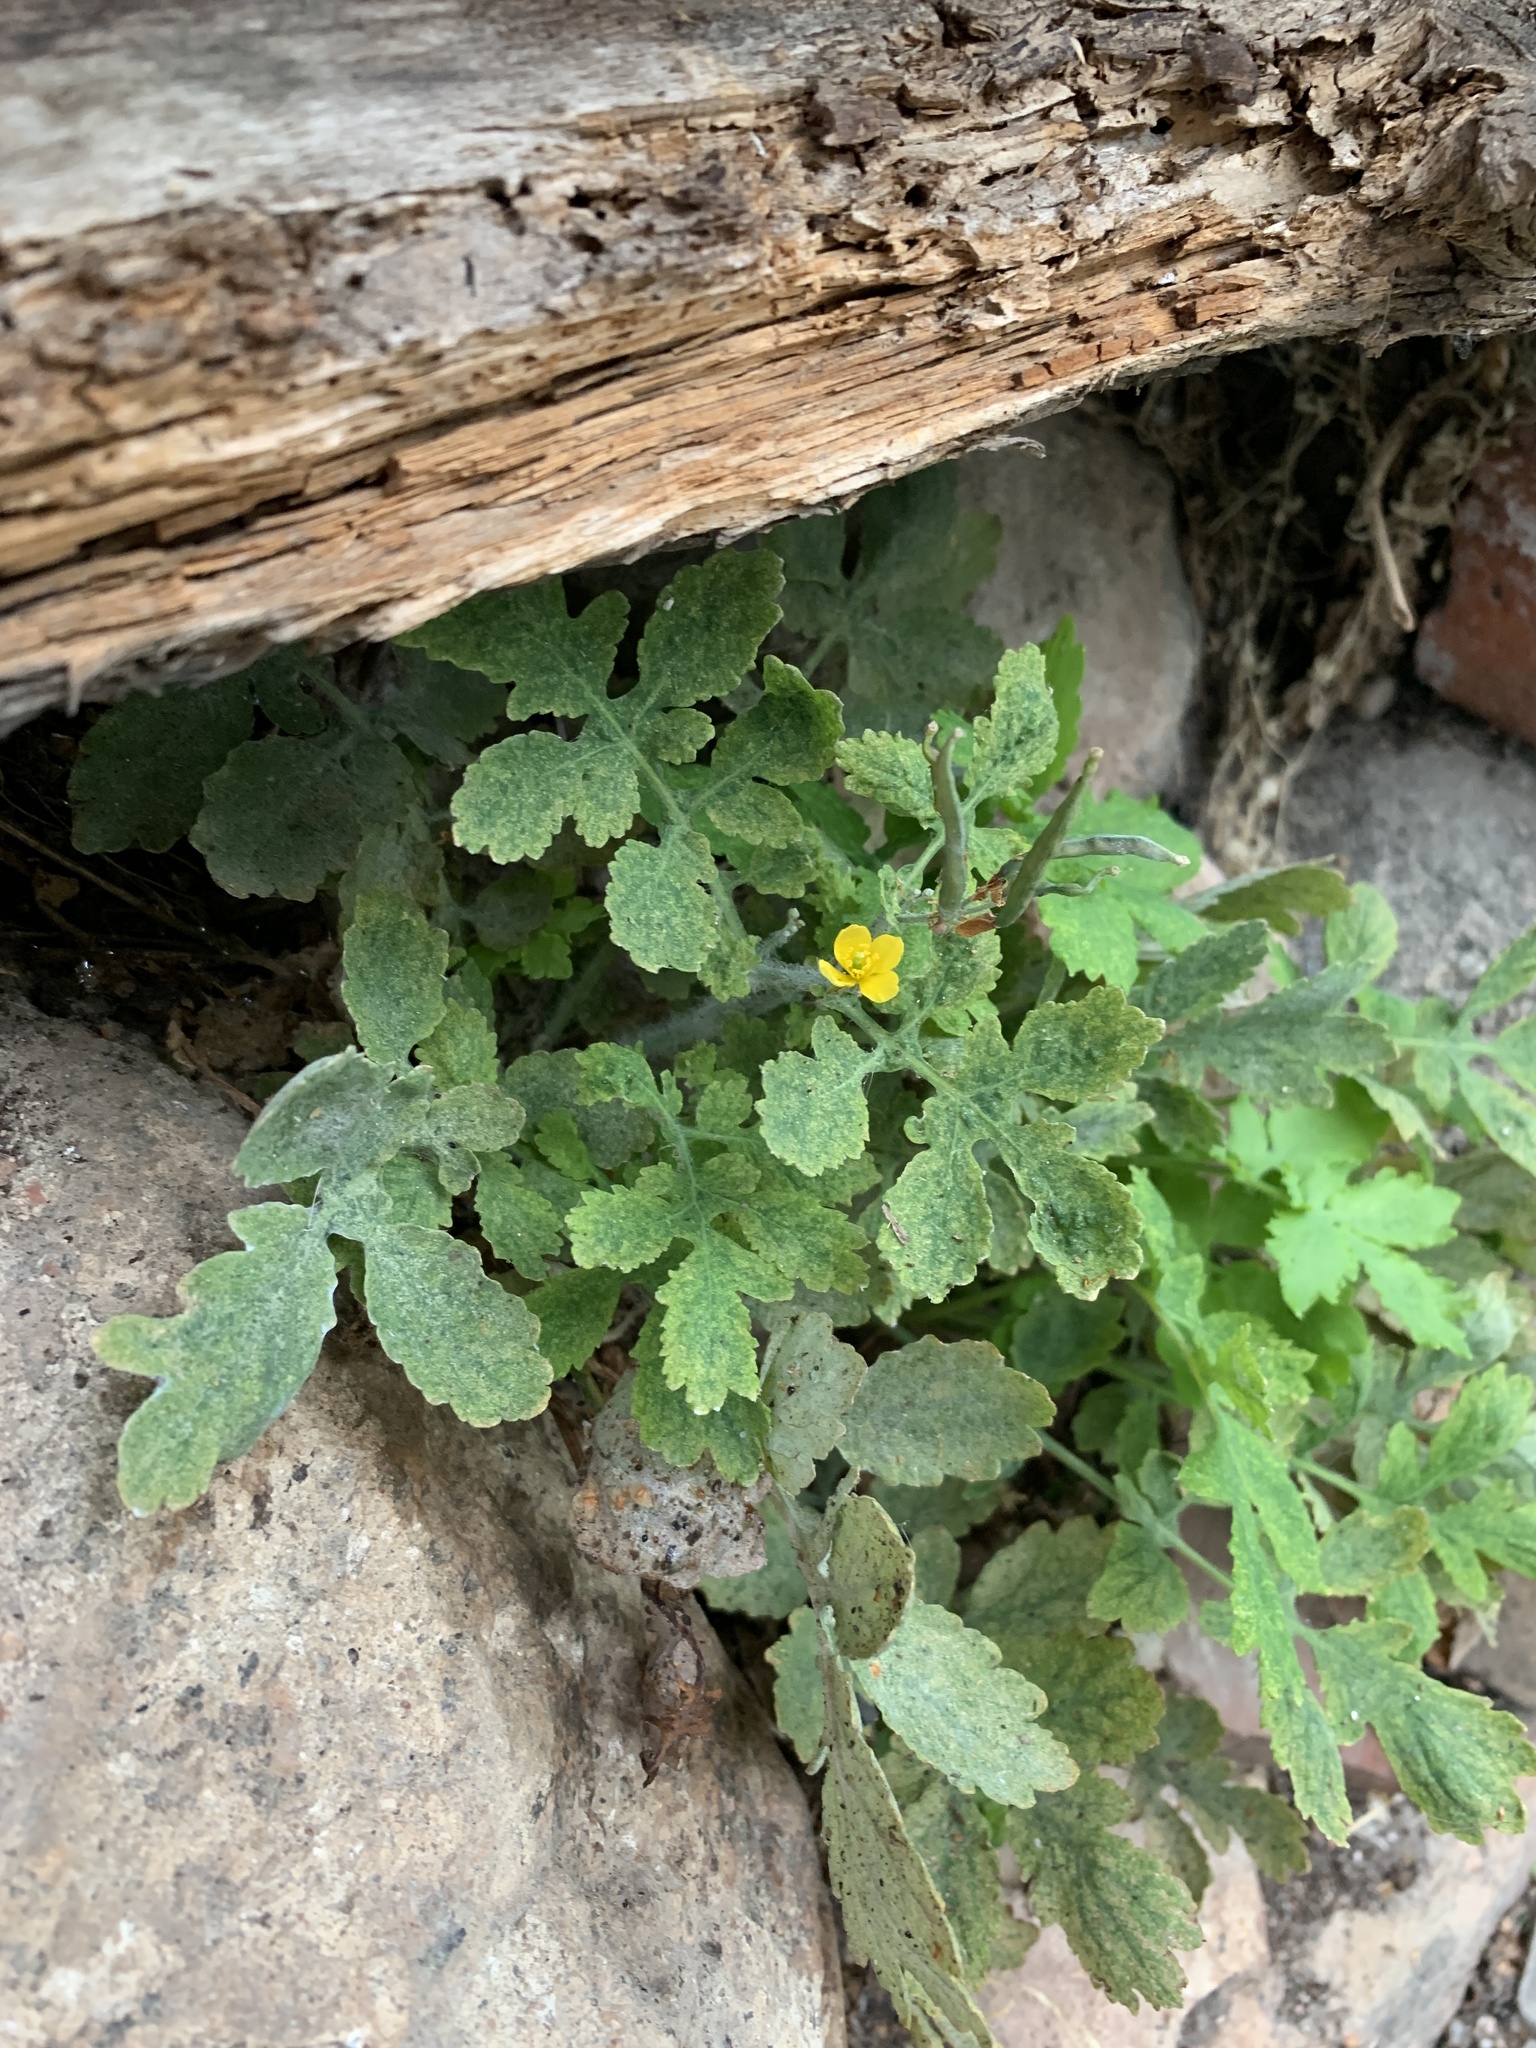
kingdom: Plantae
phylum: Tracheophyta
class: Magnoliopsida
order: Ranunculales
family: Papaveraceae
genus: Chelidonium
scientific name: Chelidonium majus
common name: Greater celandine
